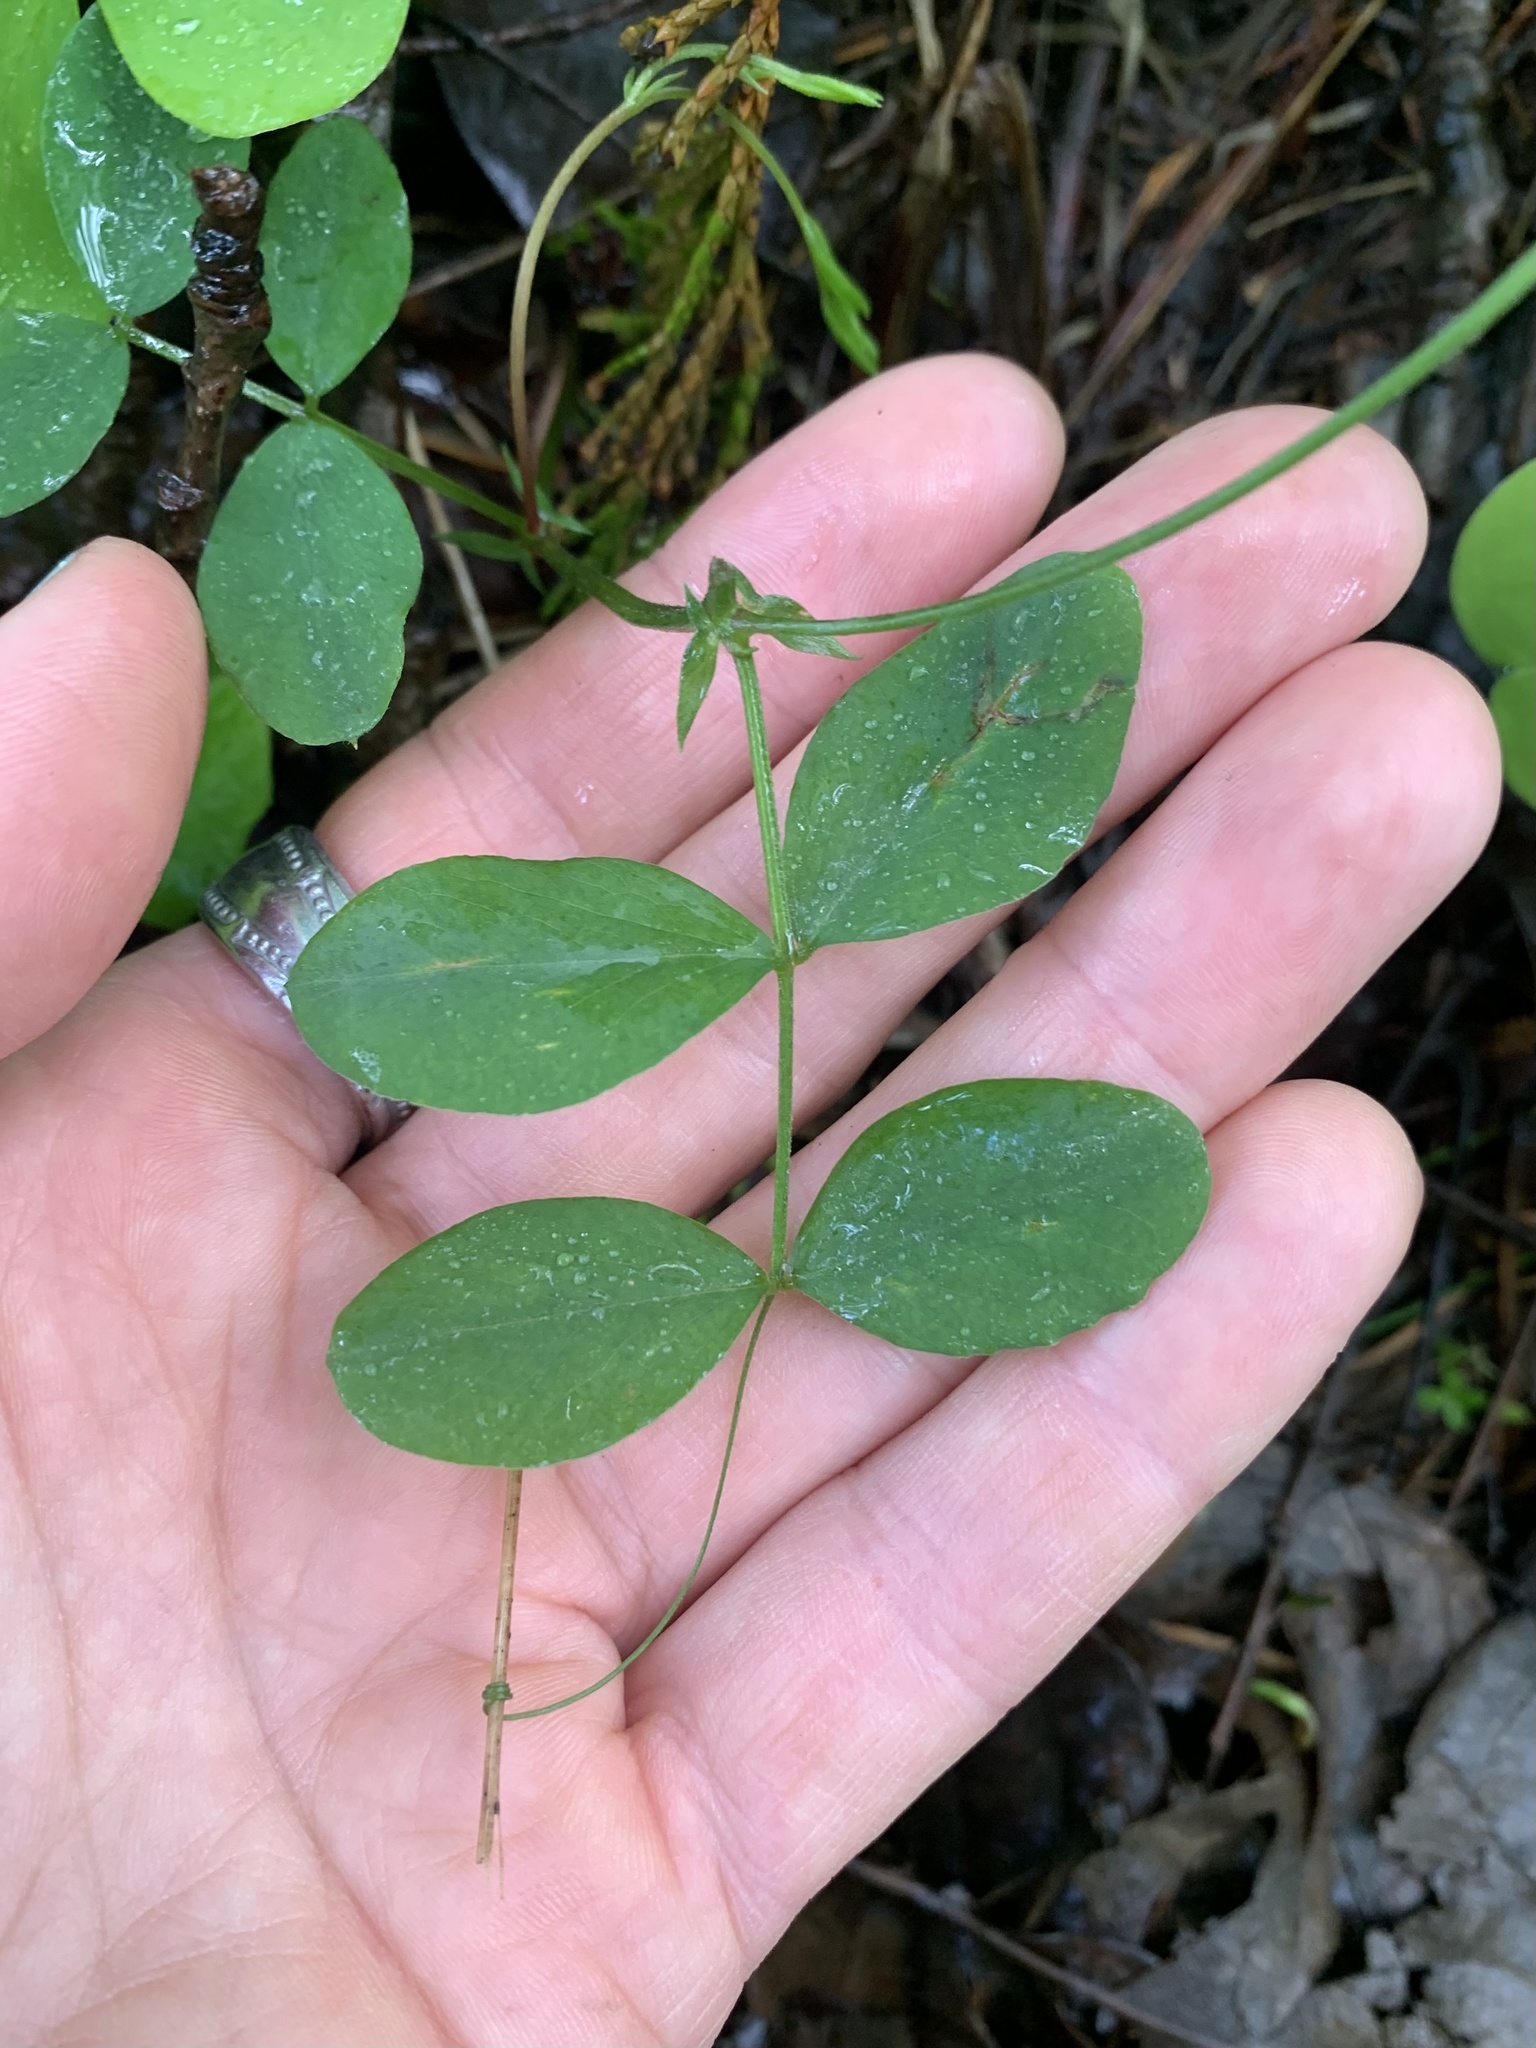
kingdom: Plantae
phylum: Tracheophyta
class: Magnoliopsida
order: Fabales
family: Fabaceae
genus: Lathyrus
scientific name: Lathyrus nevadensis
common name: Sierra nevada peavine
